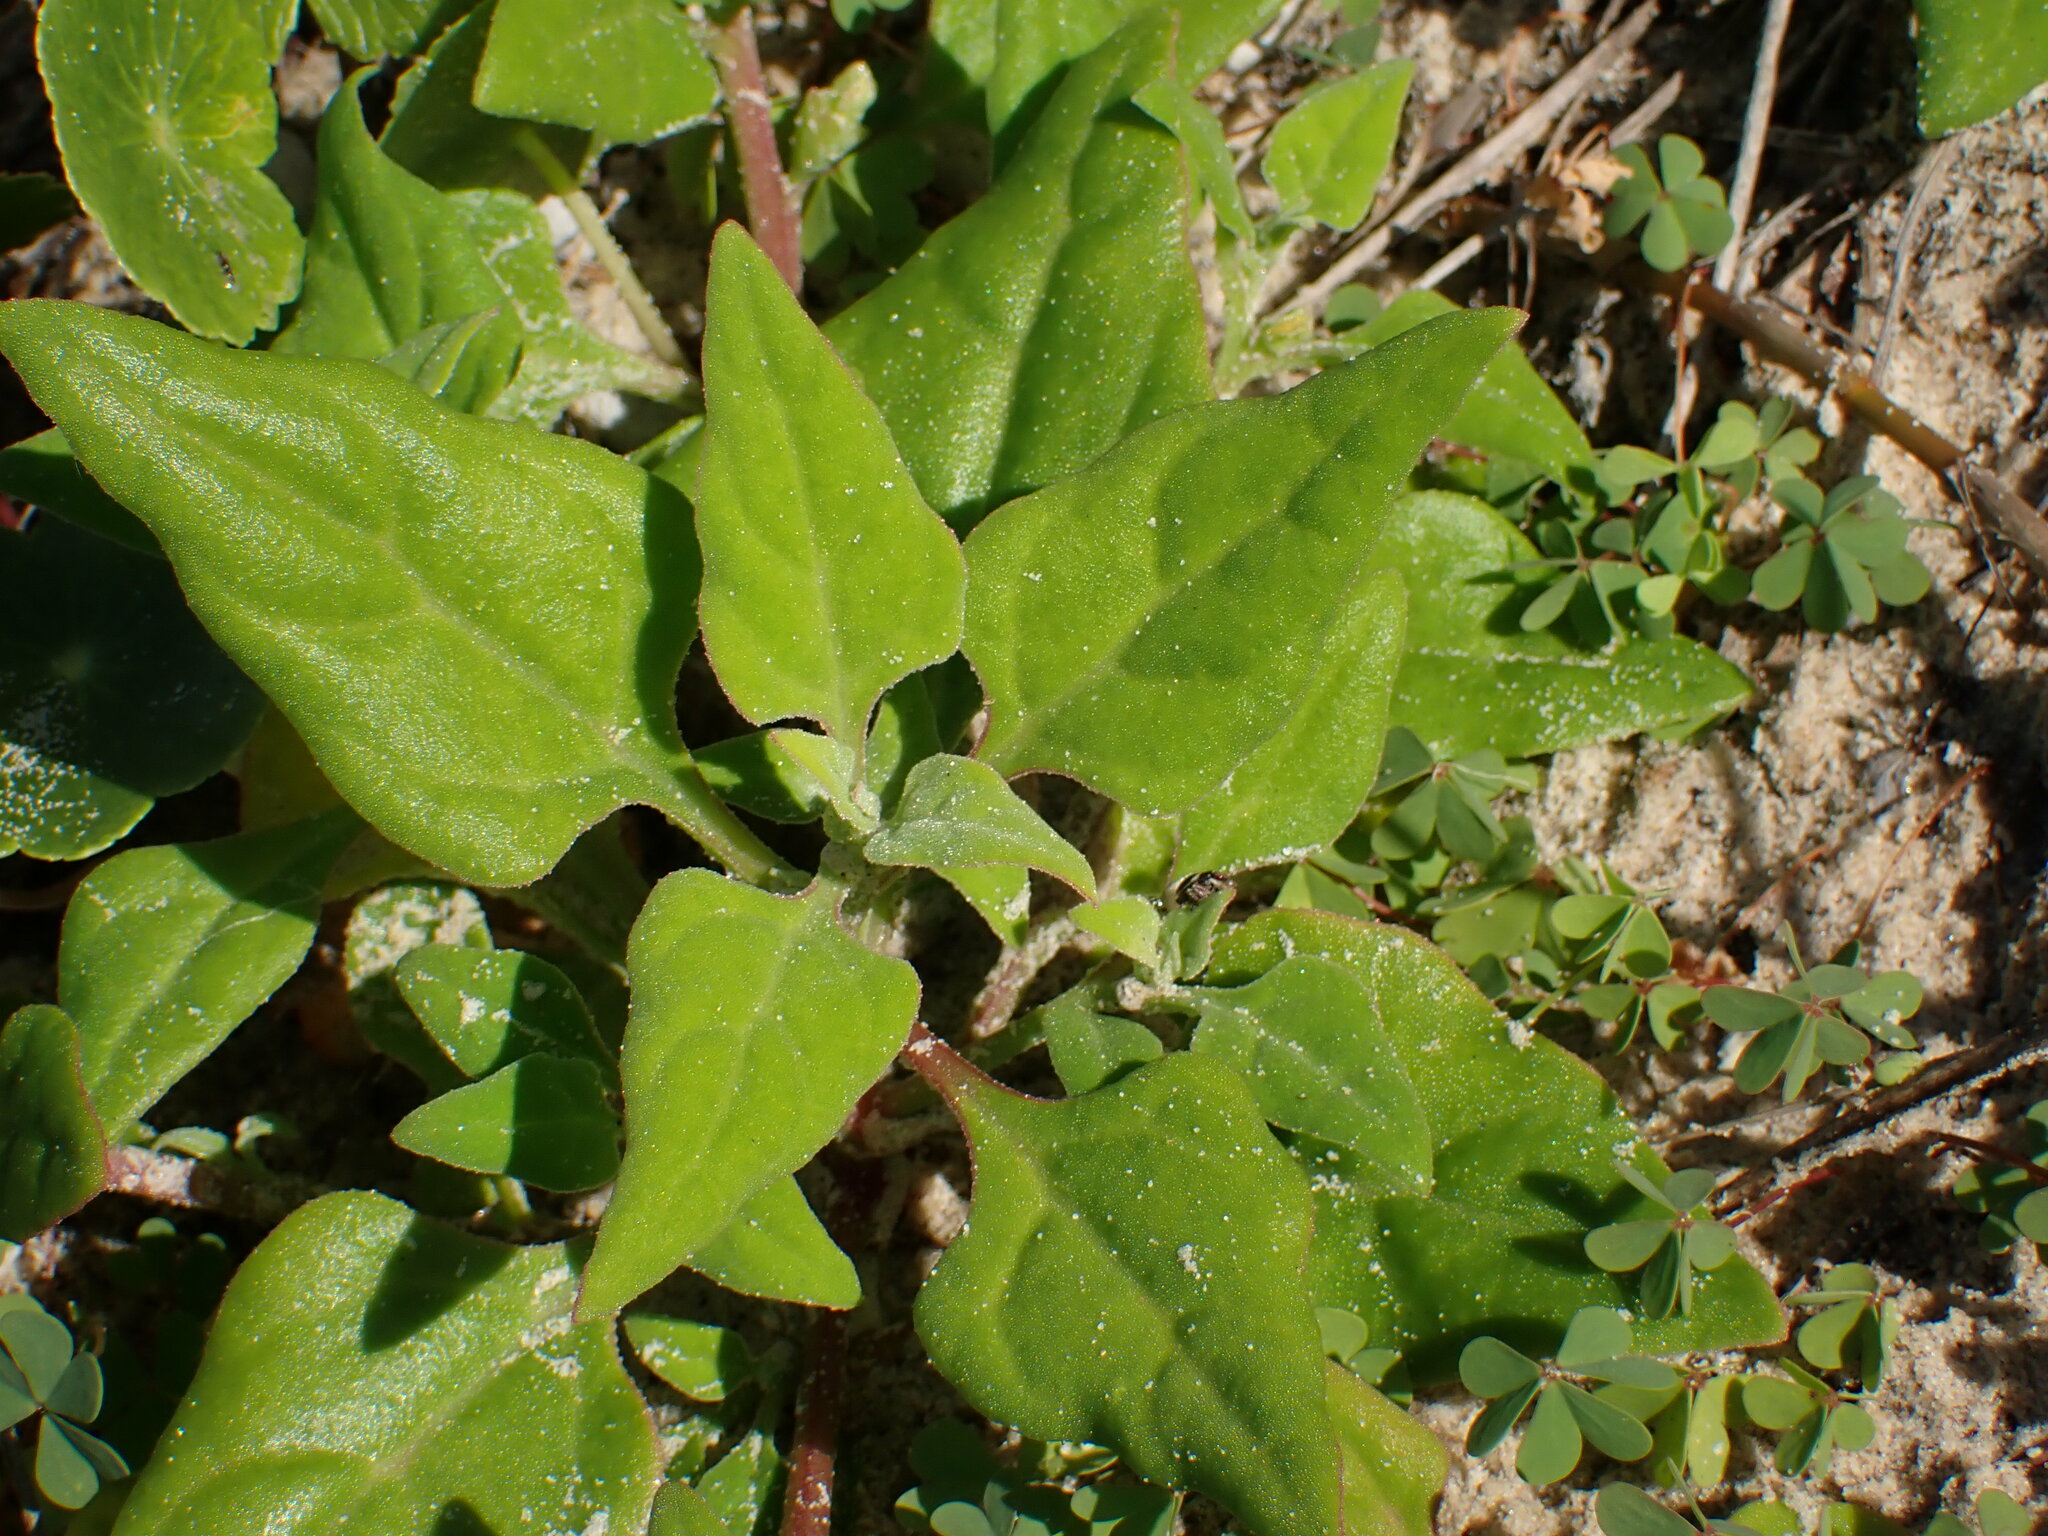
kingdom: Plantae
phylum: Tracheophyta
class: Magnoliopsida
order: Caryophyllales
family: Aizoaceae
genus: Tetragonia
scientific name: Tetragonia tetragonoides
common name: New zealand-spinach
